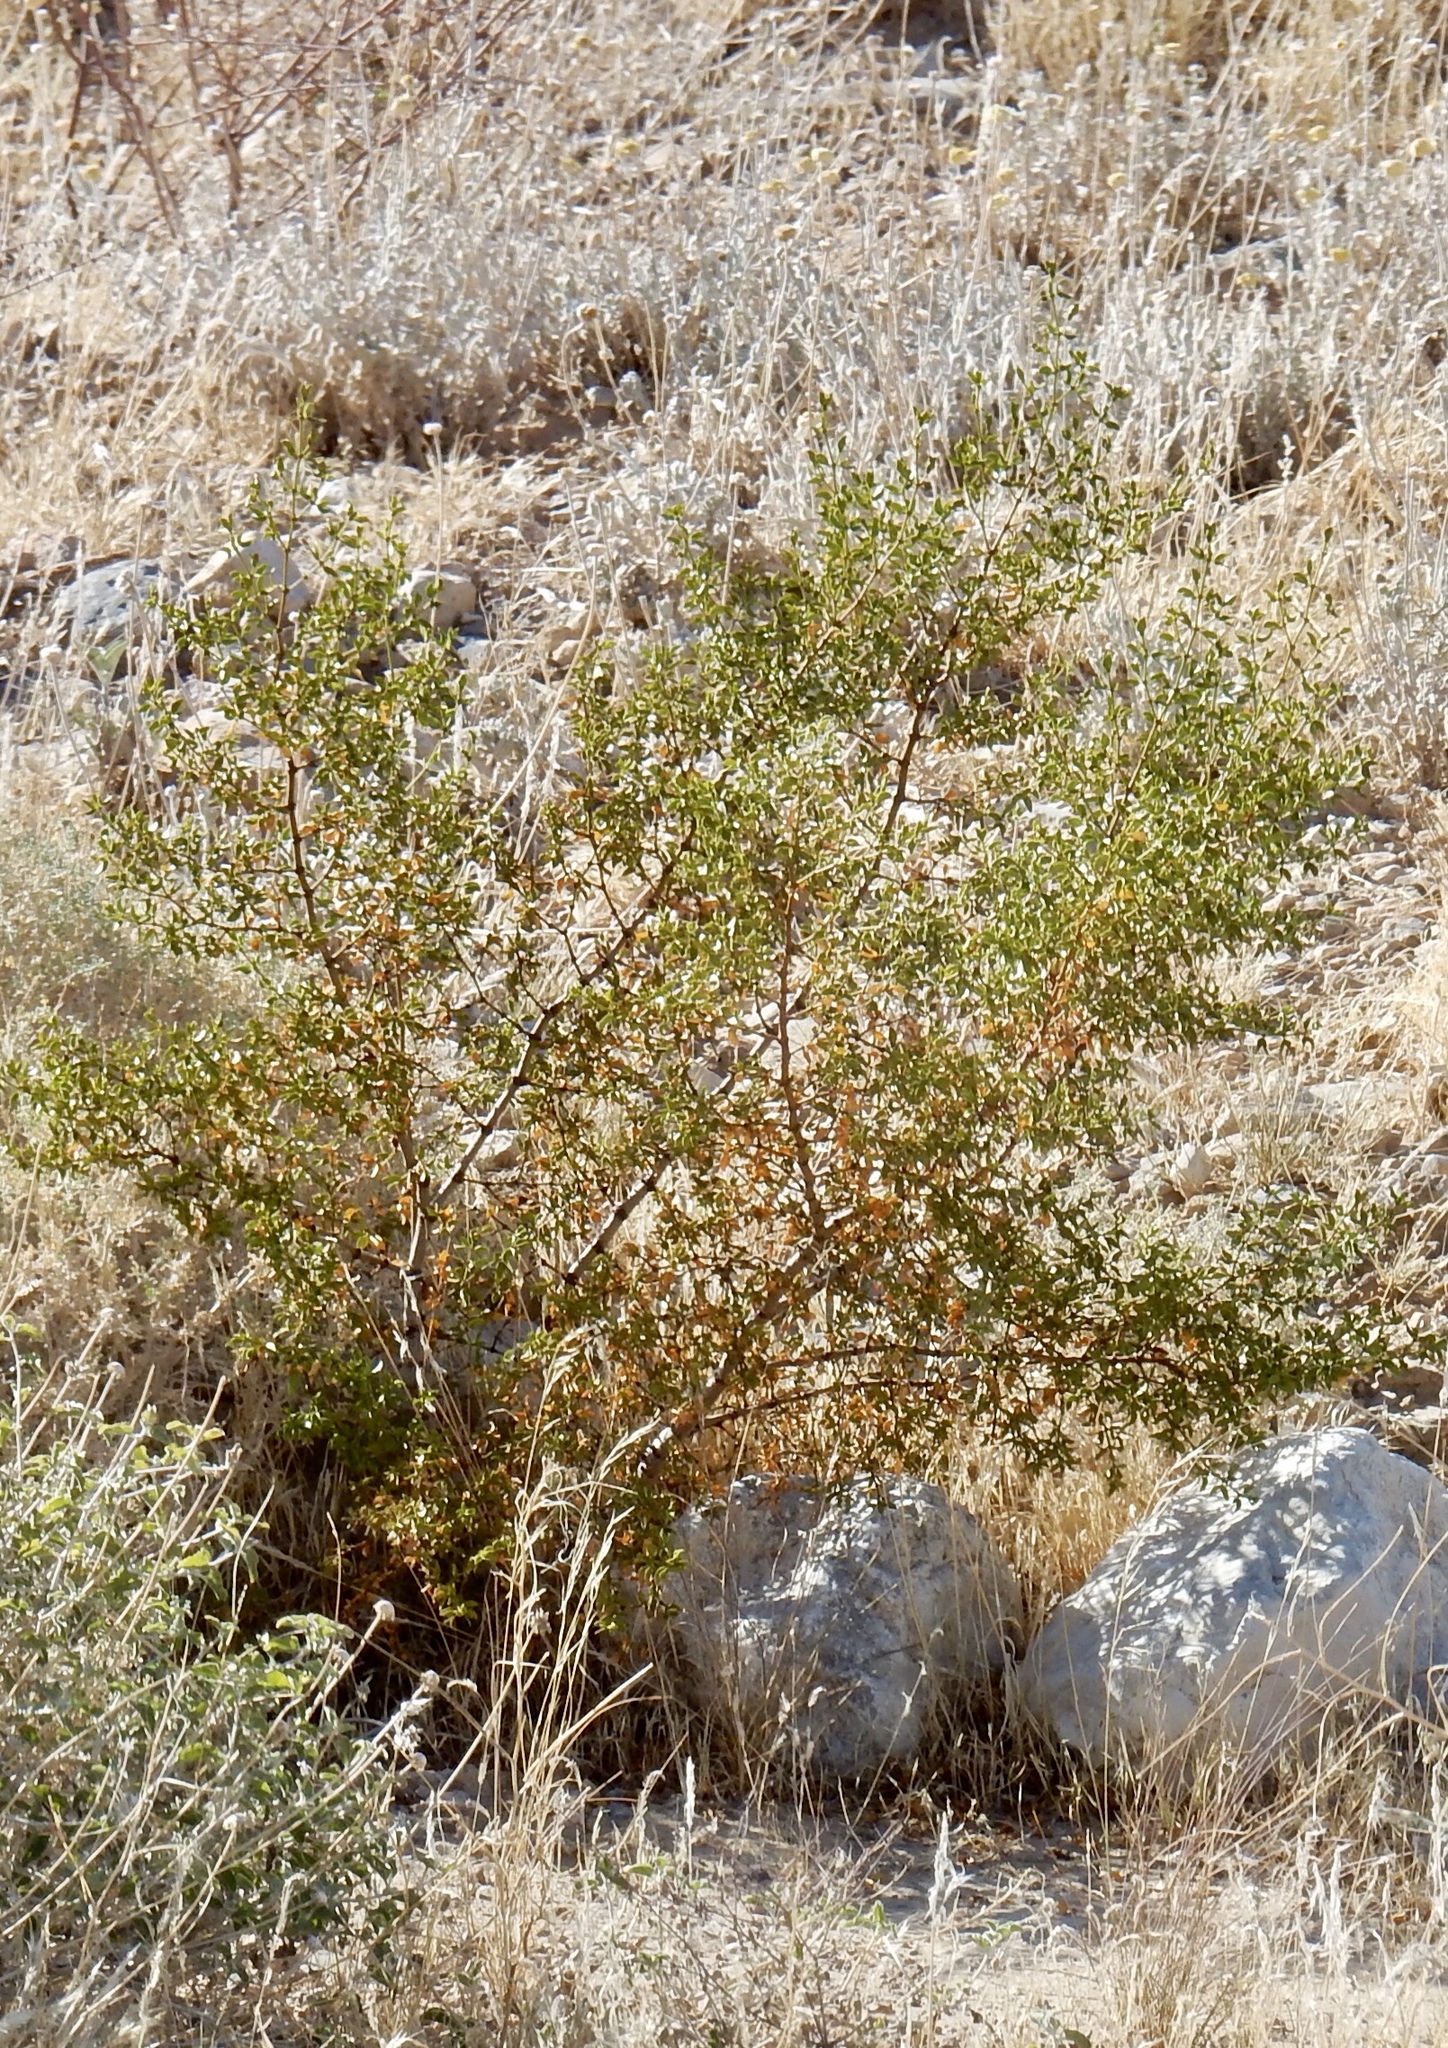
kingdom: Plantae
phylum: Tracheophyta
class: Magnoliopsida
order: Zygophyllales
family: Zygophyllaceae
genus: Larrea
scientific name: Larrea tridentata
